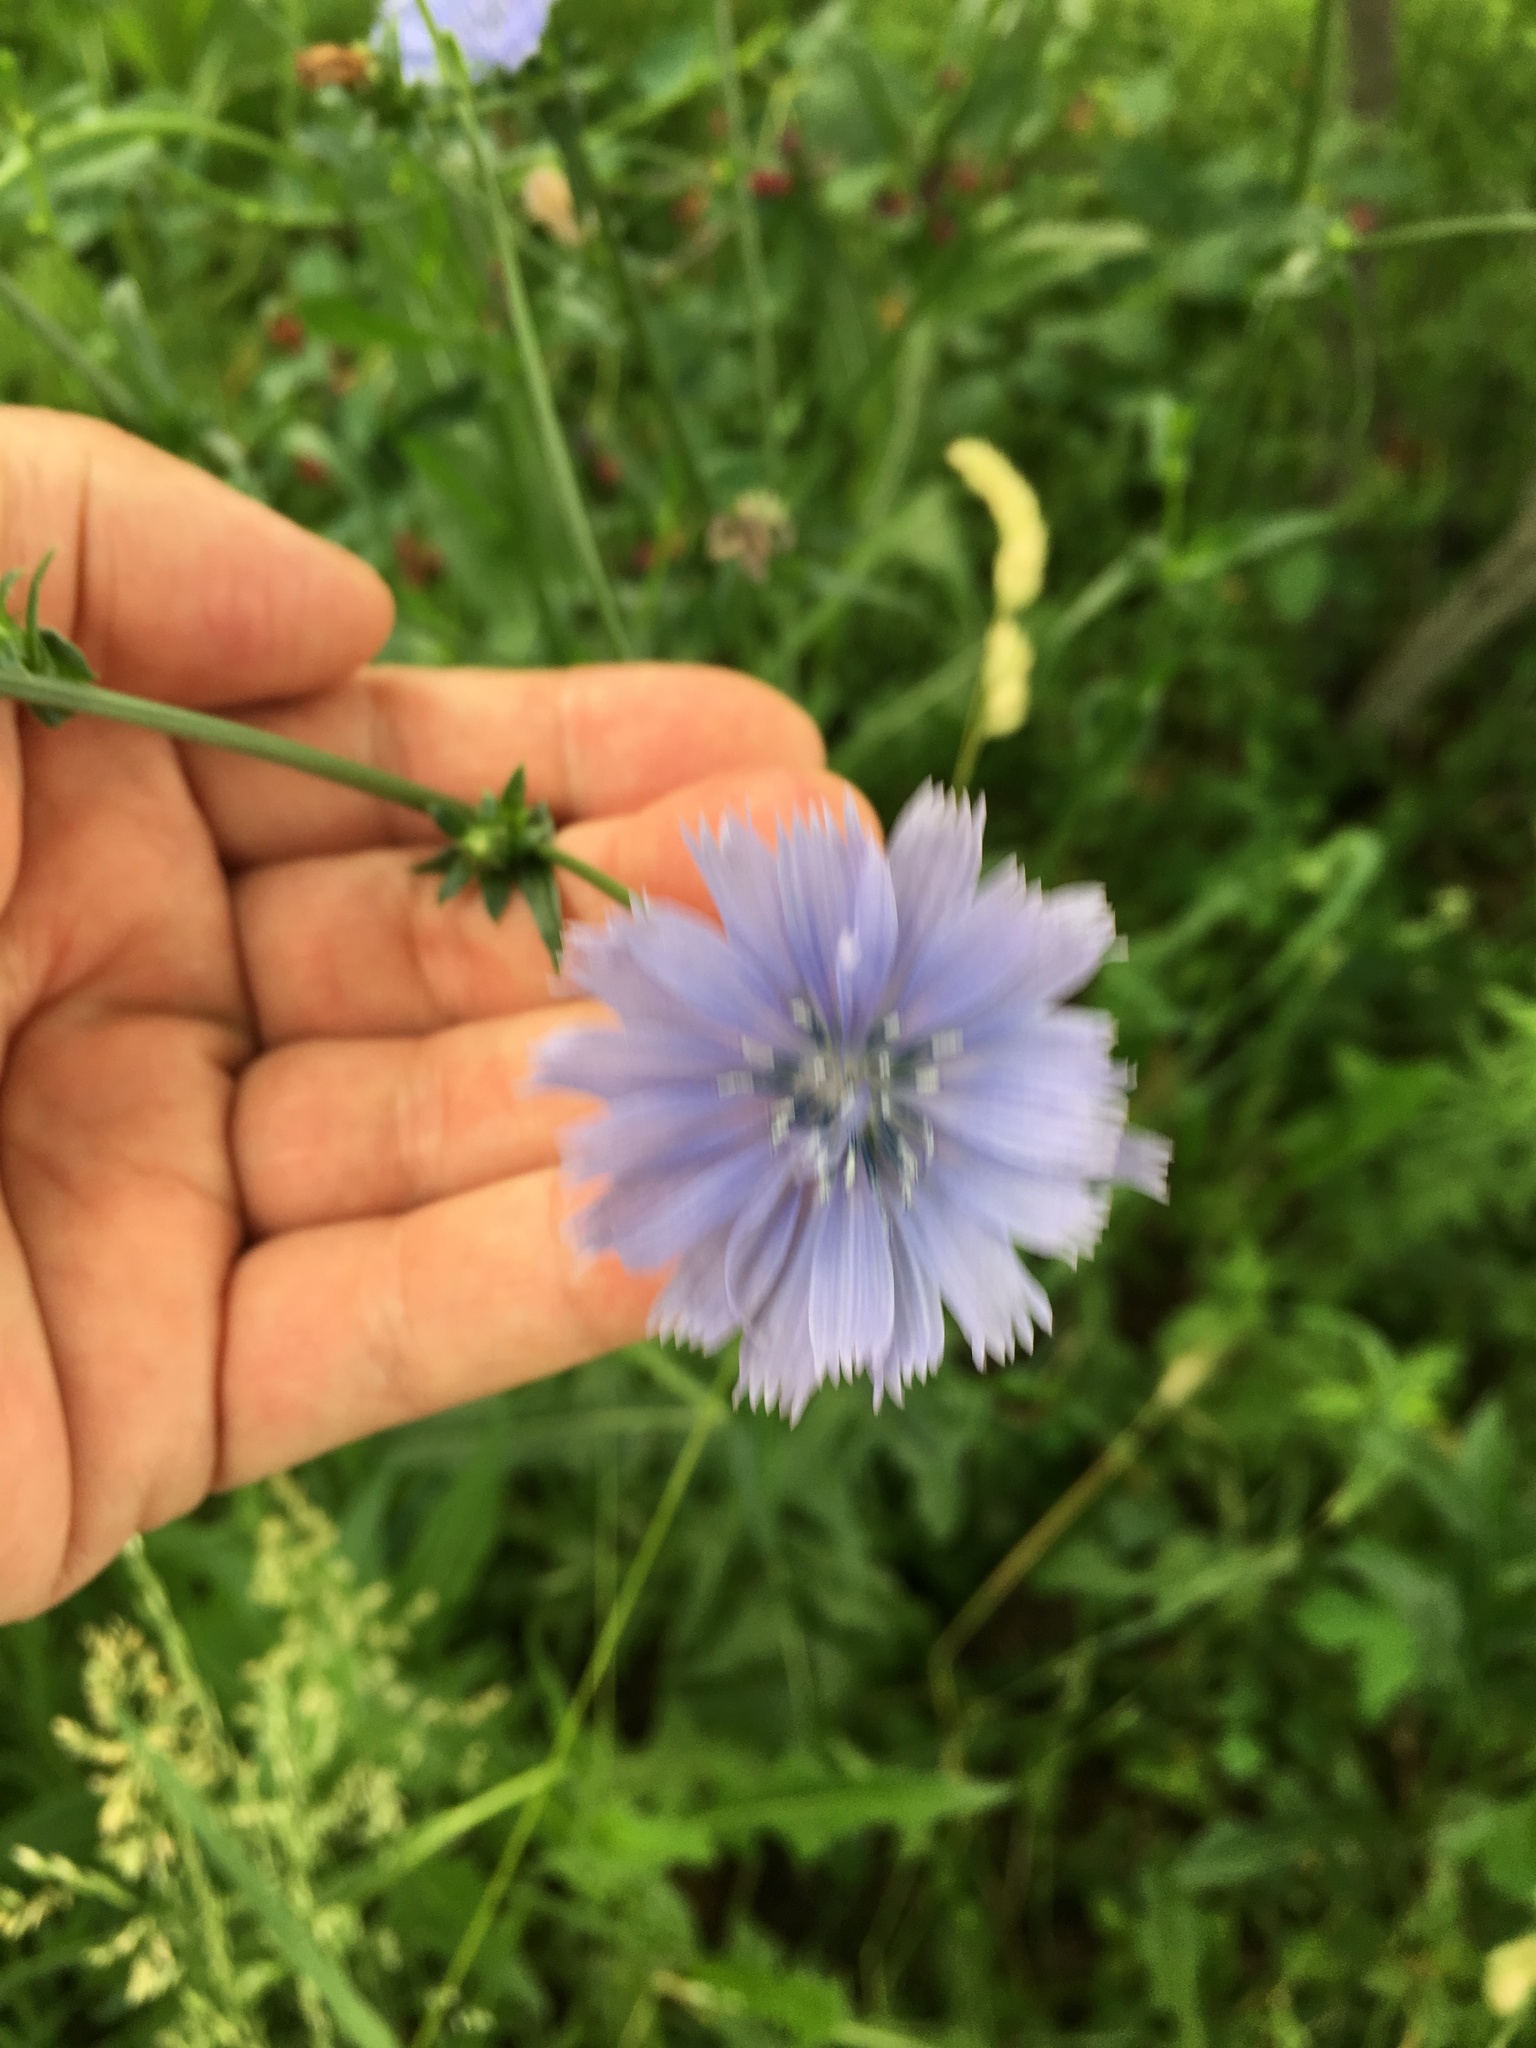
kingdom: Plantae
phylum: Tracheophyta
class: Magnoliopsida
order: Asterales
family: Asteraceae
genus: Cichorium
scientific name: Cichorium intybus
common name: Chicory
